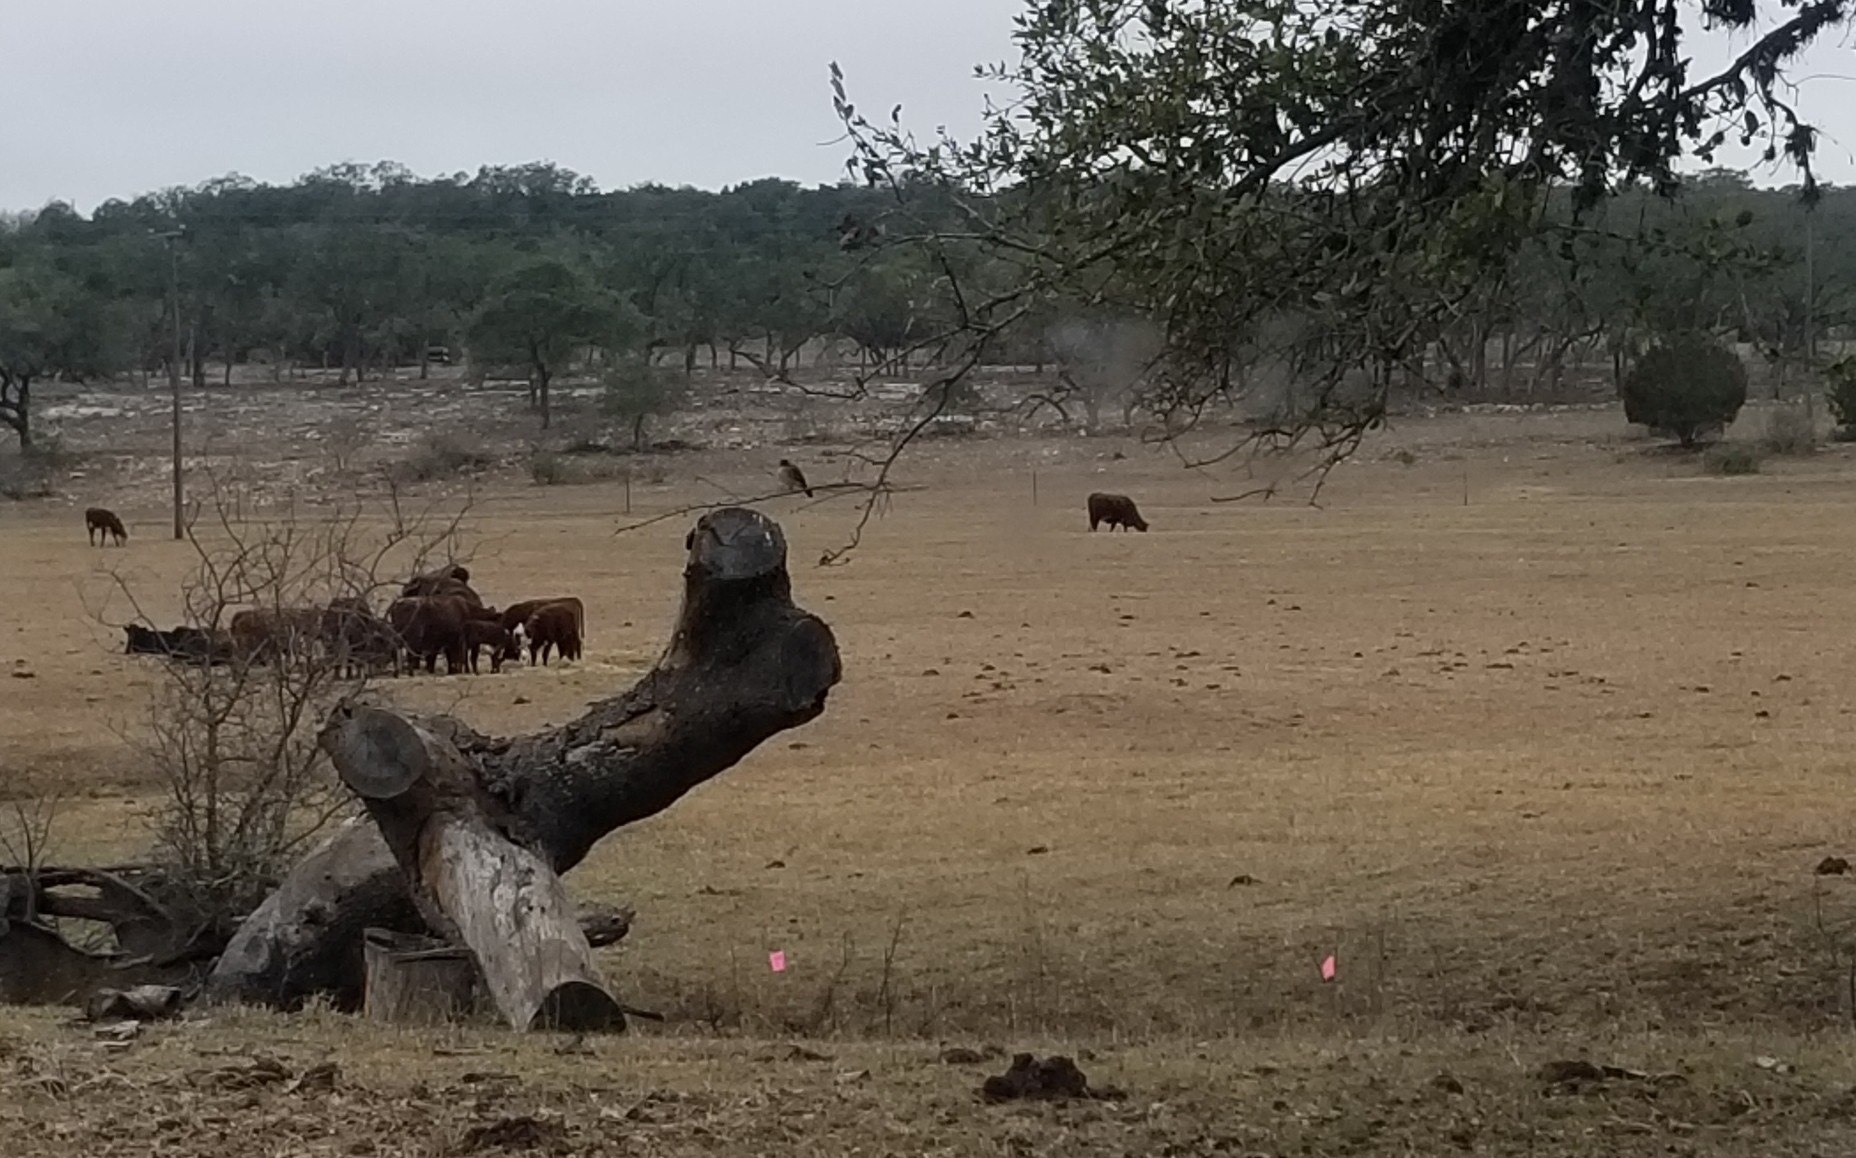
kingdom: Animalia
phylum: Chordata
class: Aves
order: Passeriformes
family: Tyrannidae
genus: Sayornis
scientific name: Sayornis phoebe
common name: Eastern phoebe
